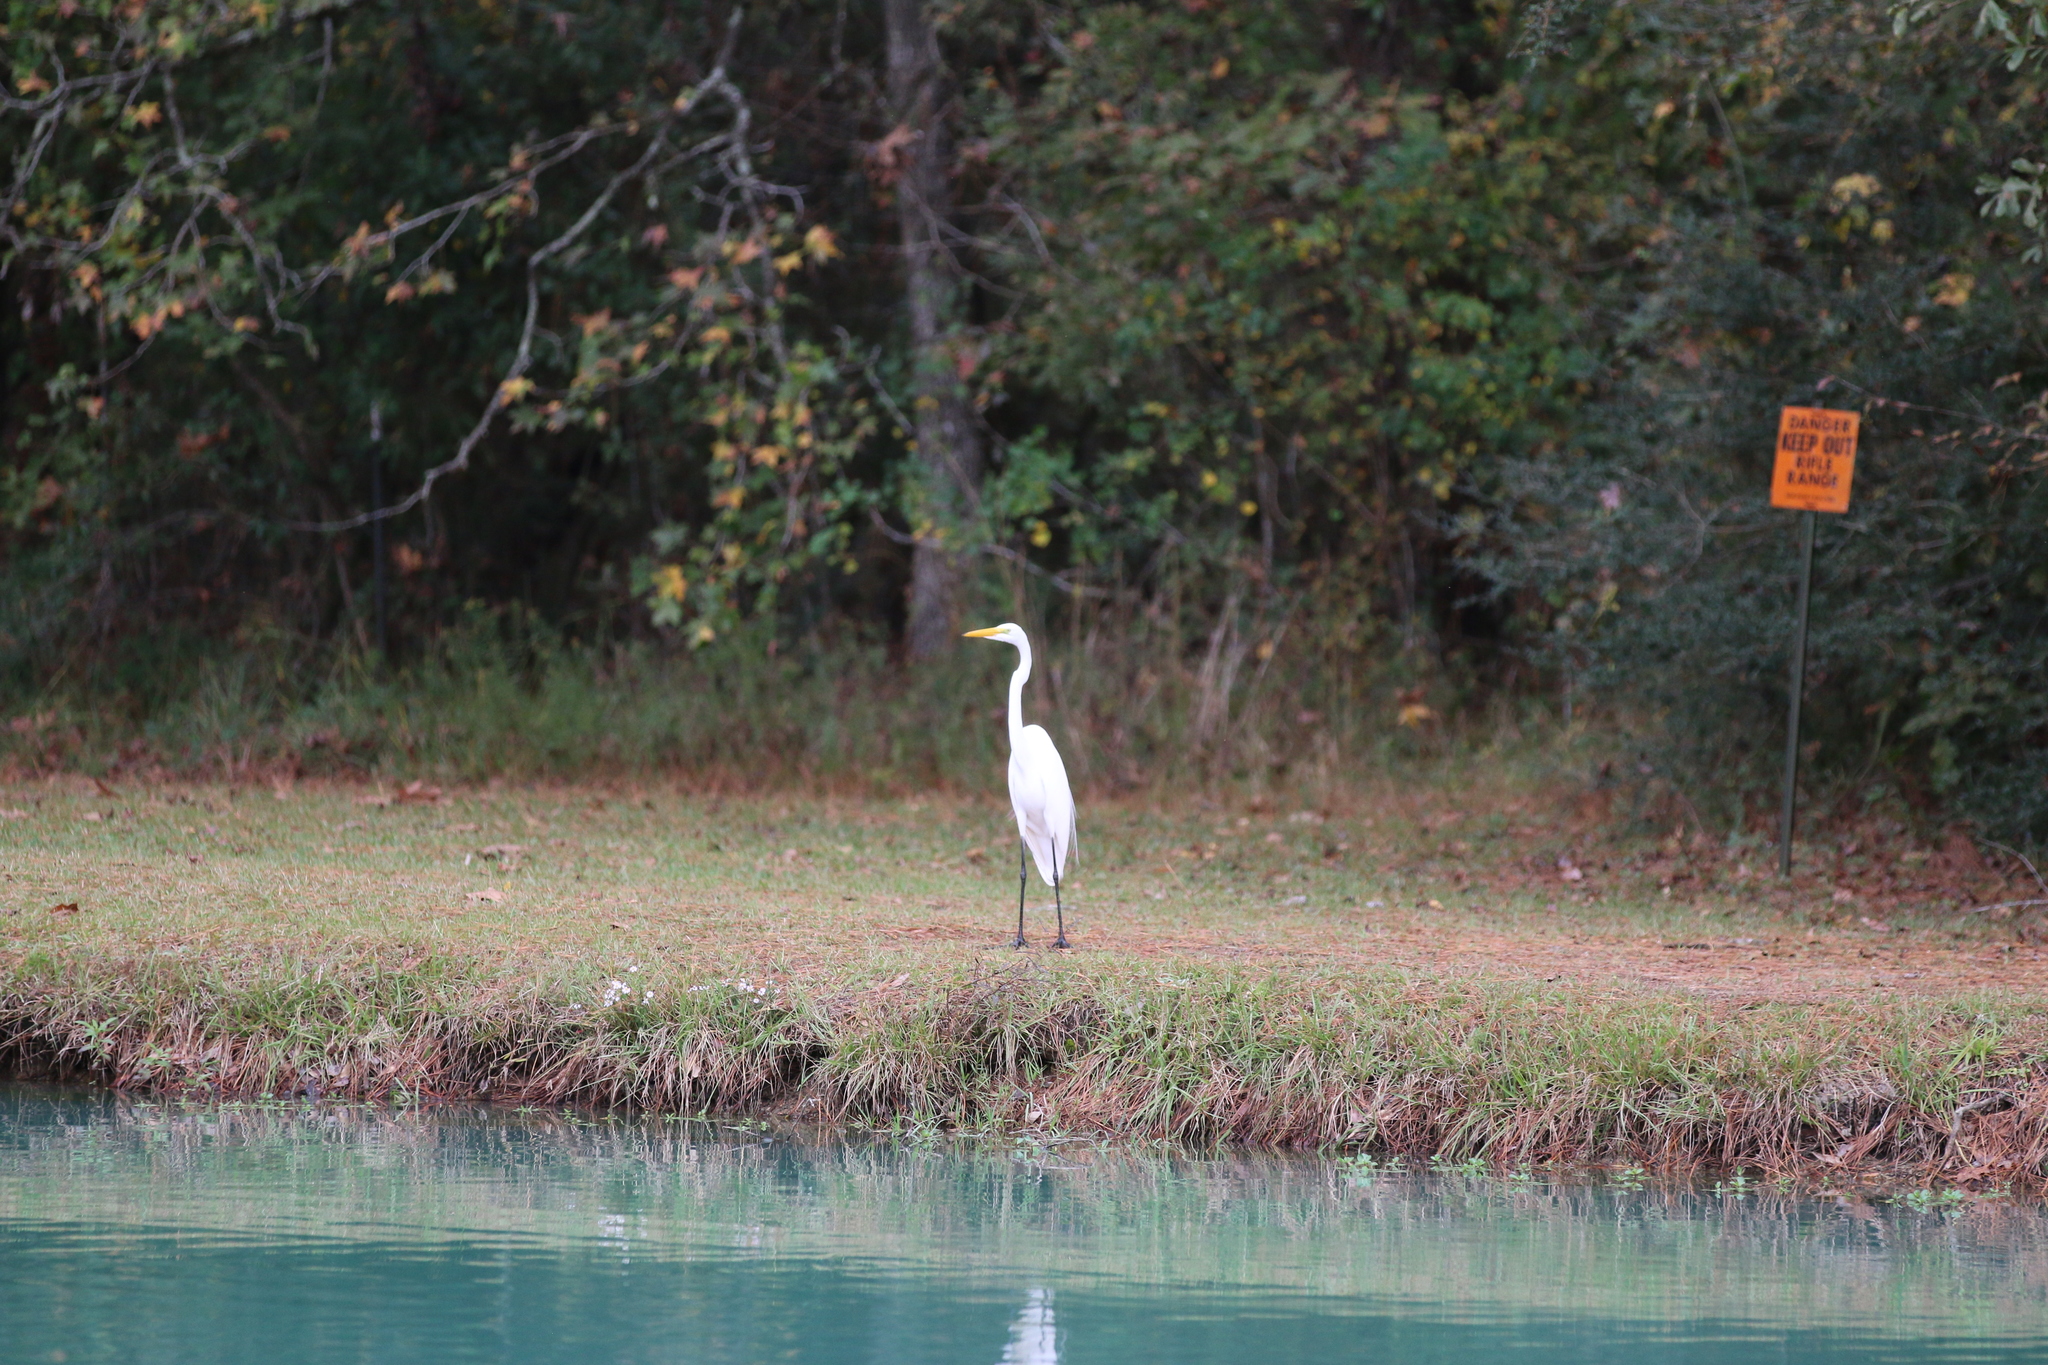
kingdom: Animalia
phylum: Chordata
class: Aves
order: Pelecaniformes
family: Ardeidae
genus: Ardea
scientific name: Ardea alba
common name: Great egret
